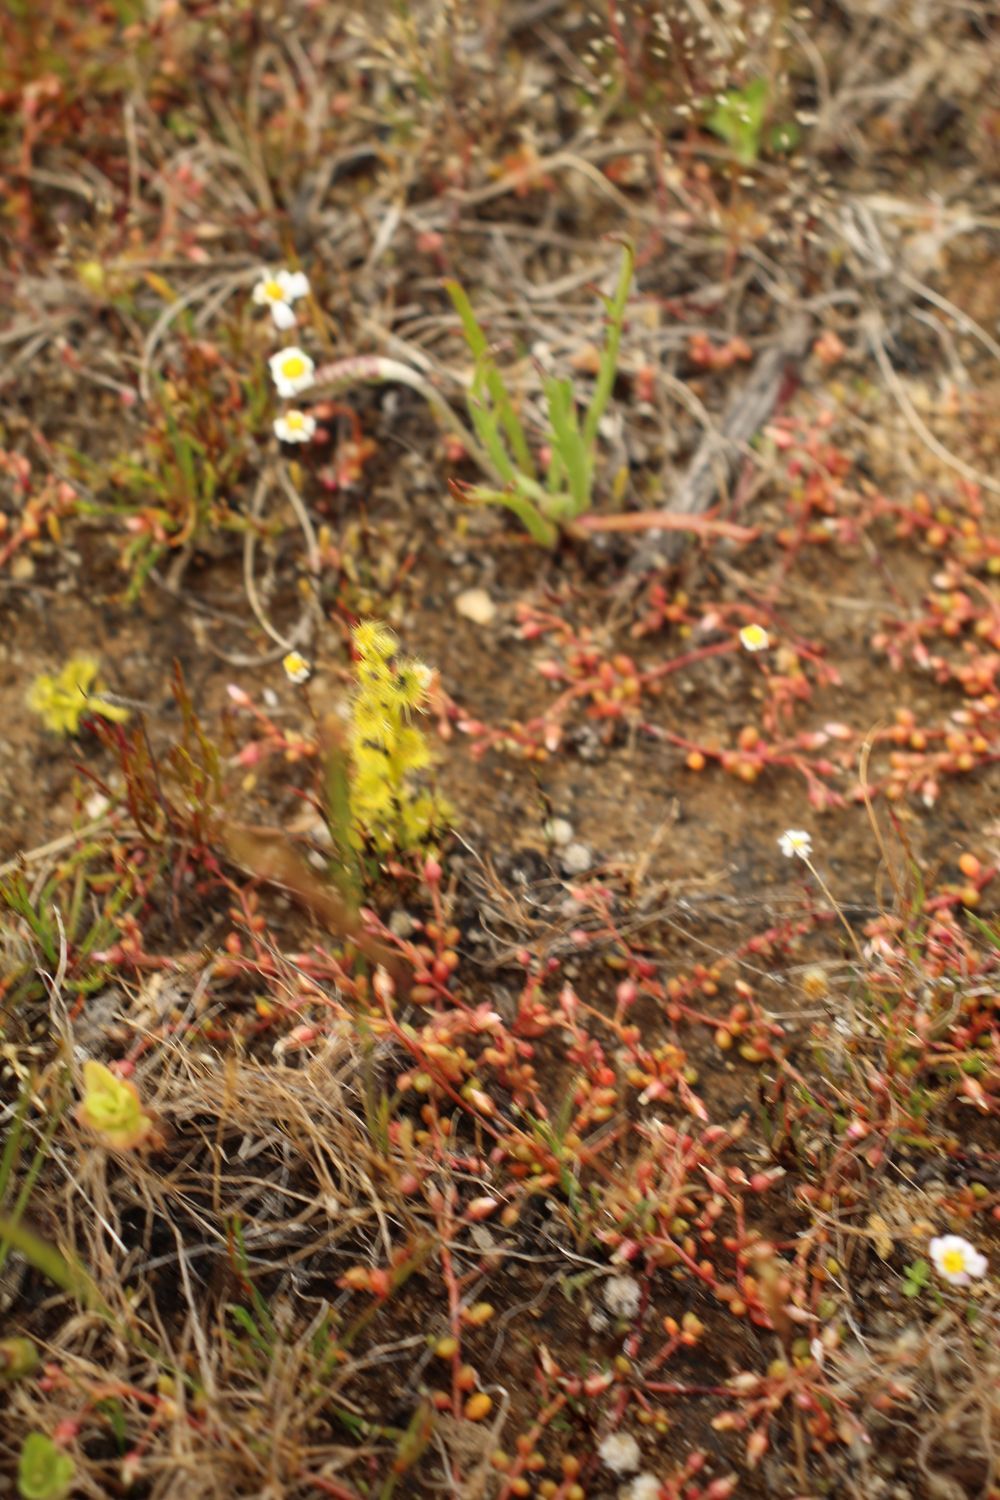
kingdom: Plantae
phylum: Tracheophyta
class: Magnoliopsida
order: Caryophyllales
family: Droseraceae
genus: Drosera
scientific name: Drosera ramellosa
